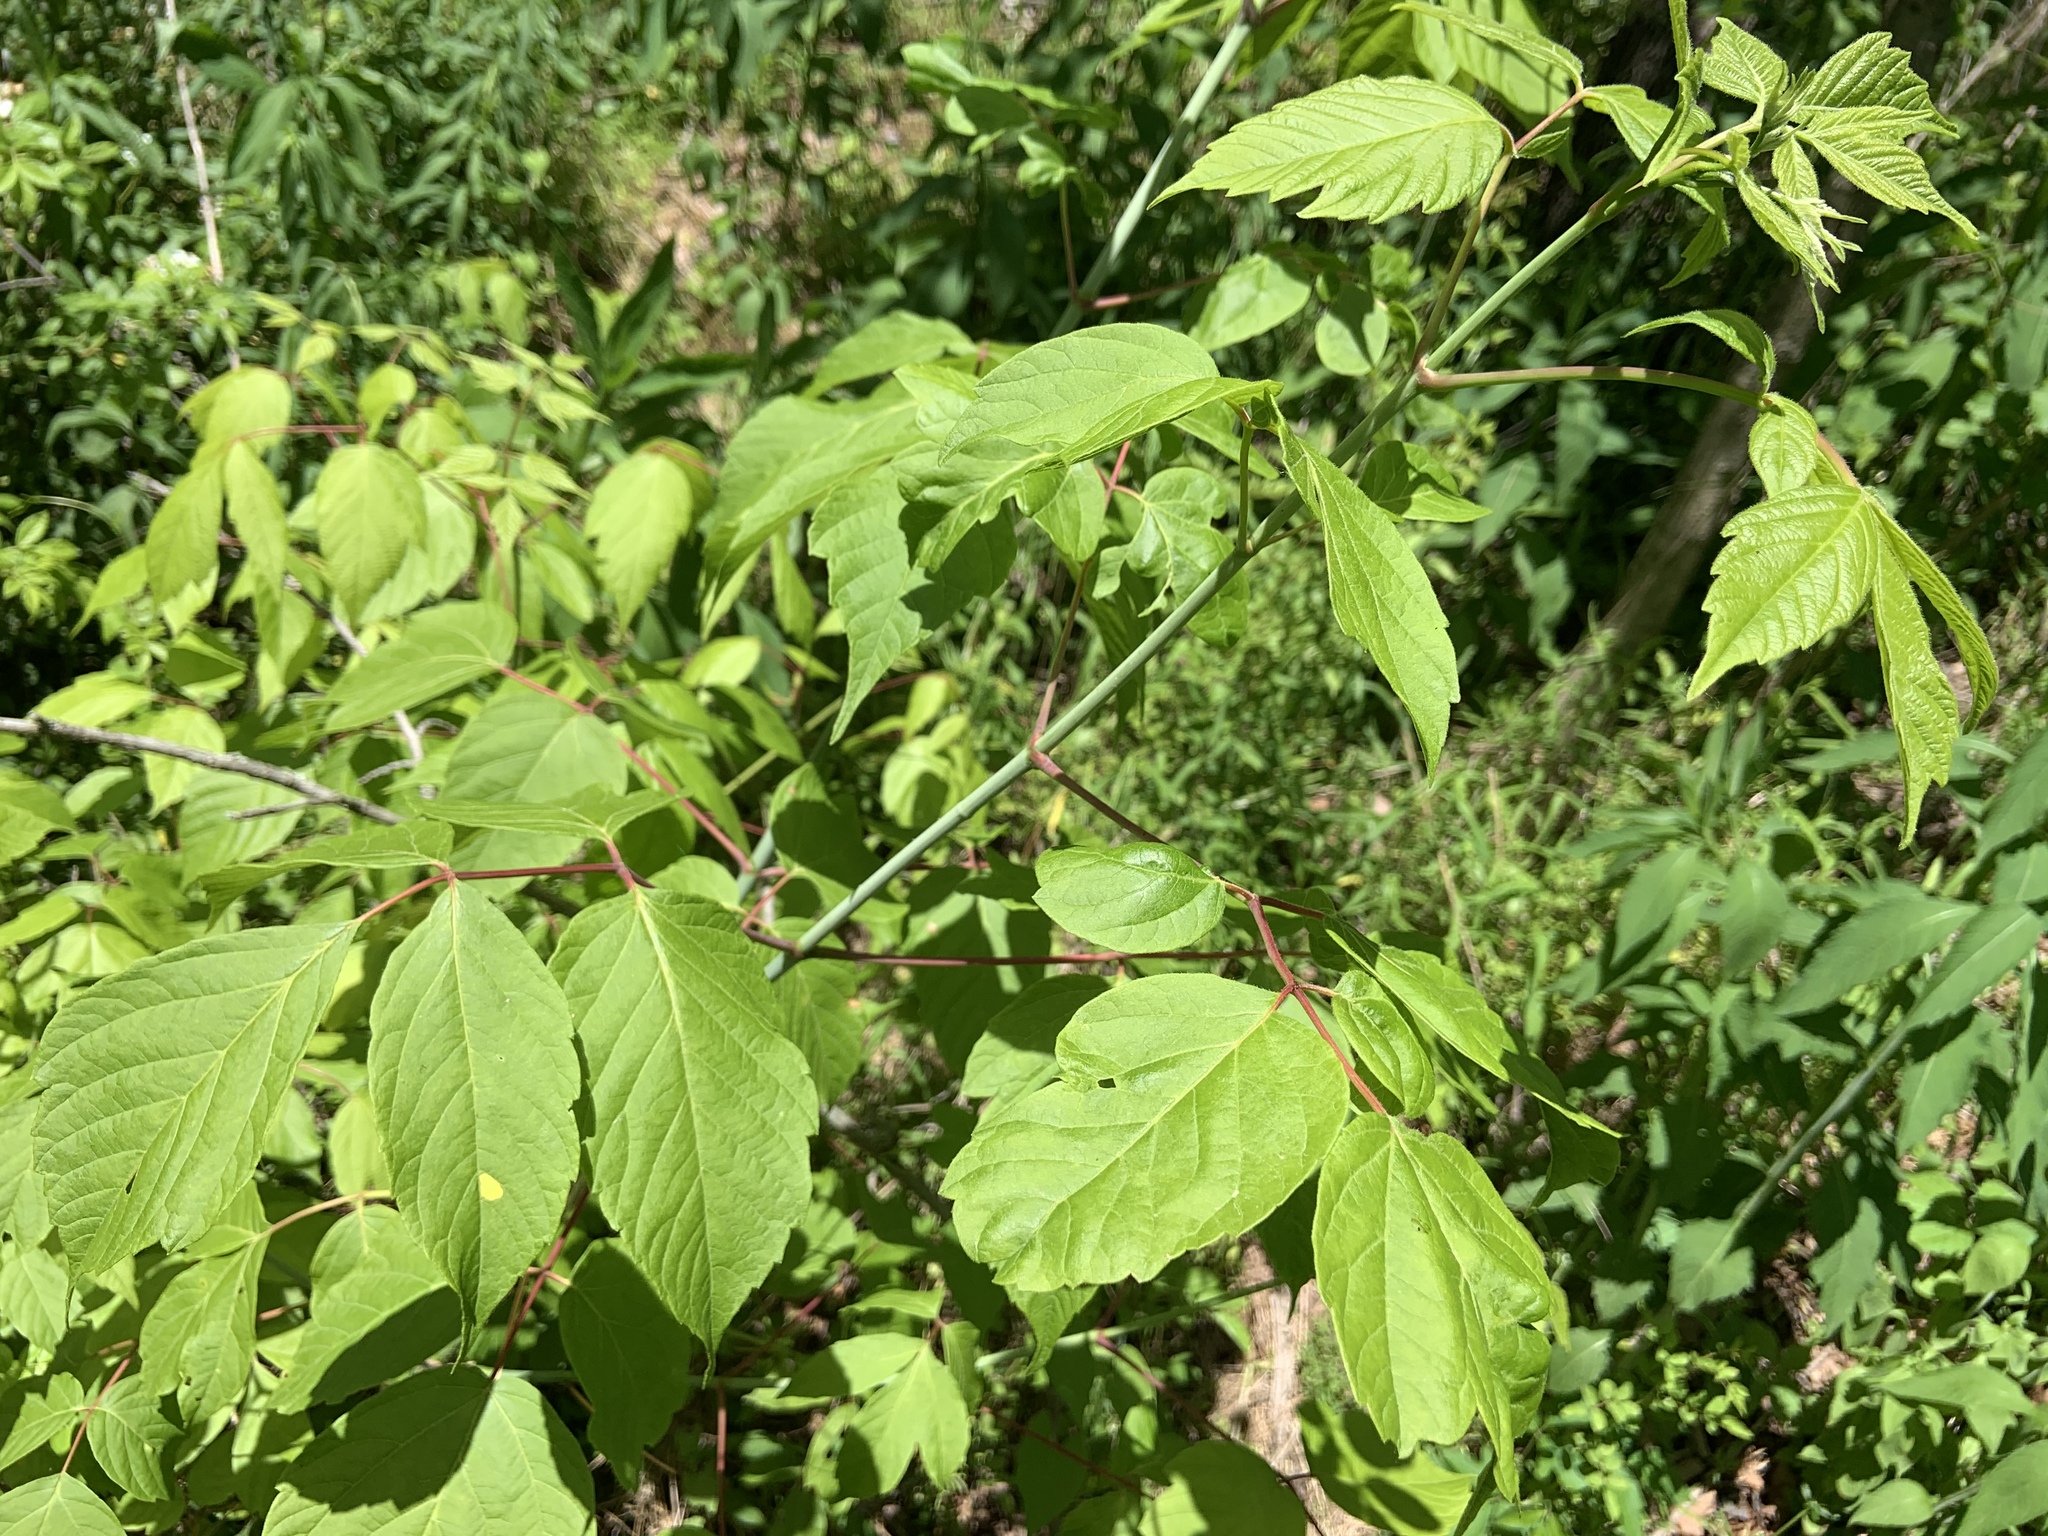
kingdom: Plantae
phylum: Tracheophyta
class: Magnoliopsida
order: Sapindales
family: Sapindaceae
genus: Acer
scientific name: Acer negundo
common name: Ashleaf maple
